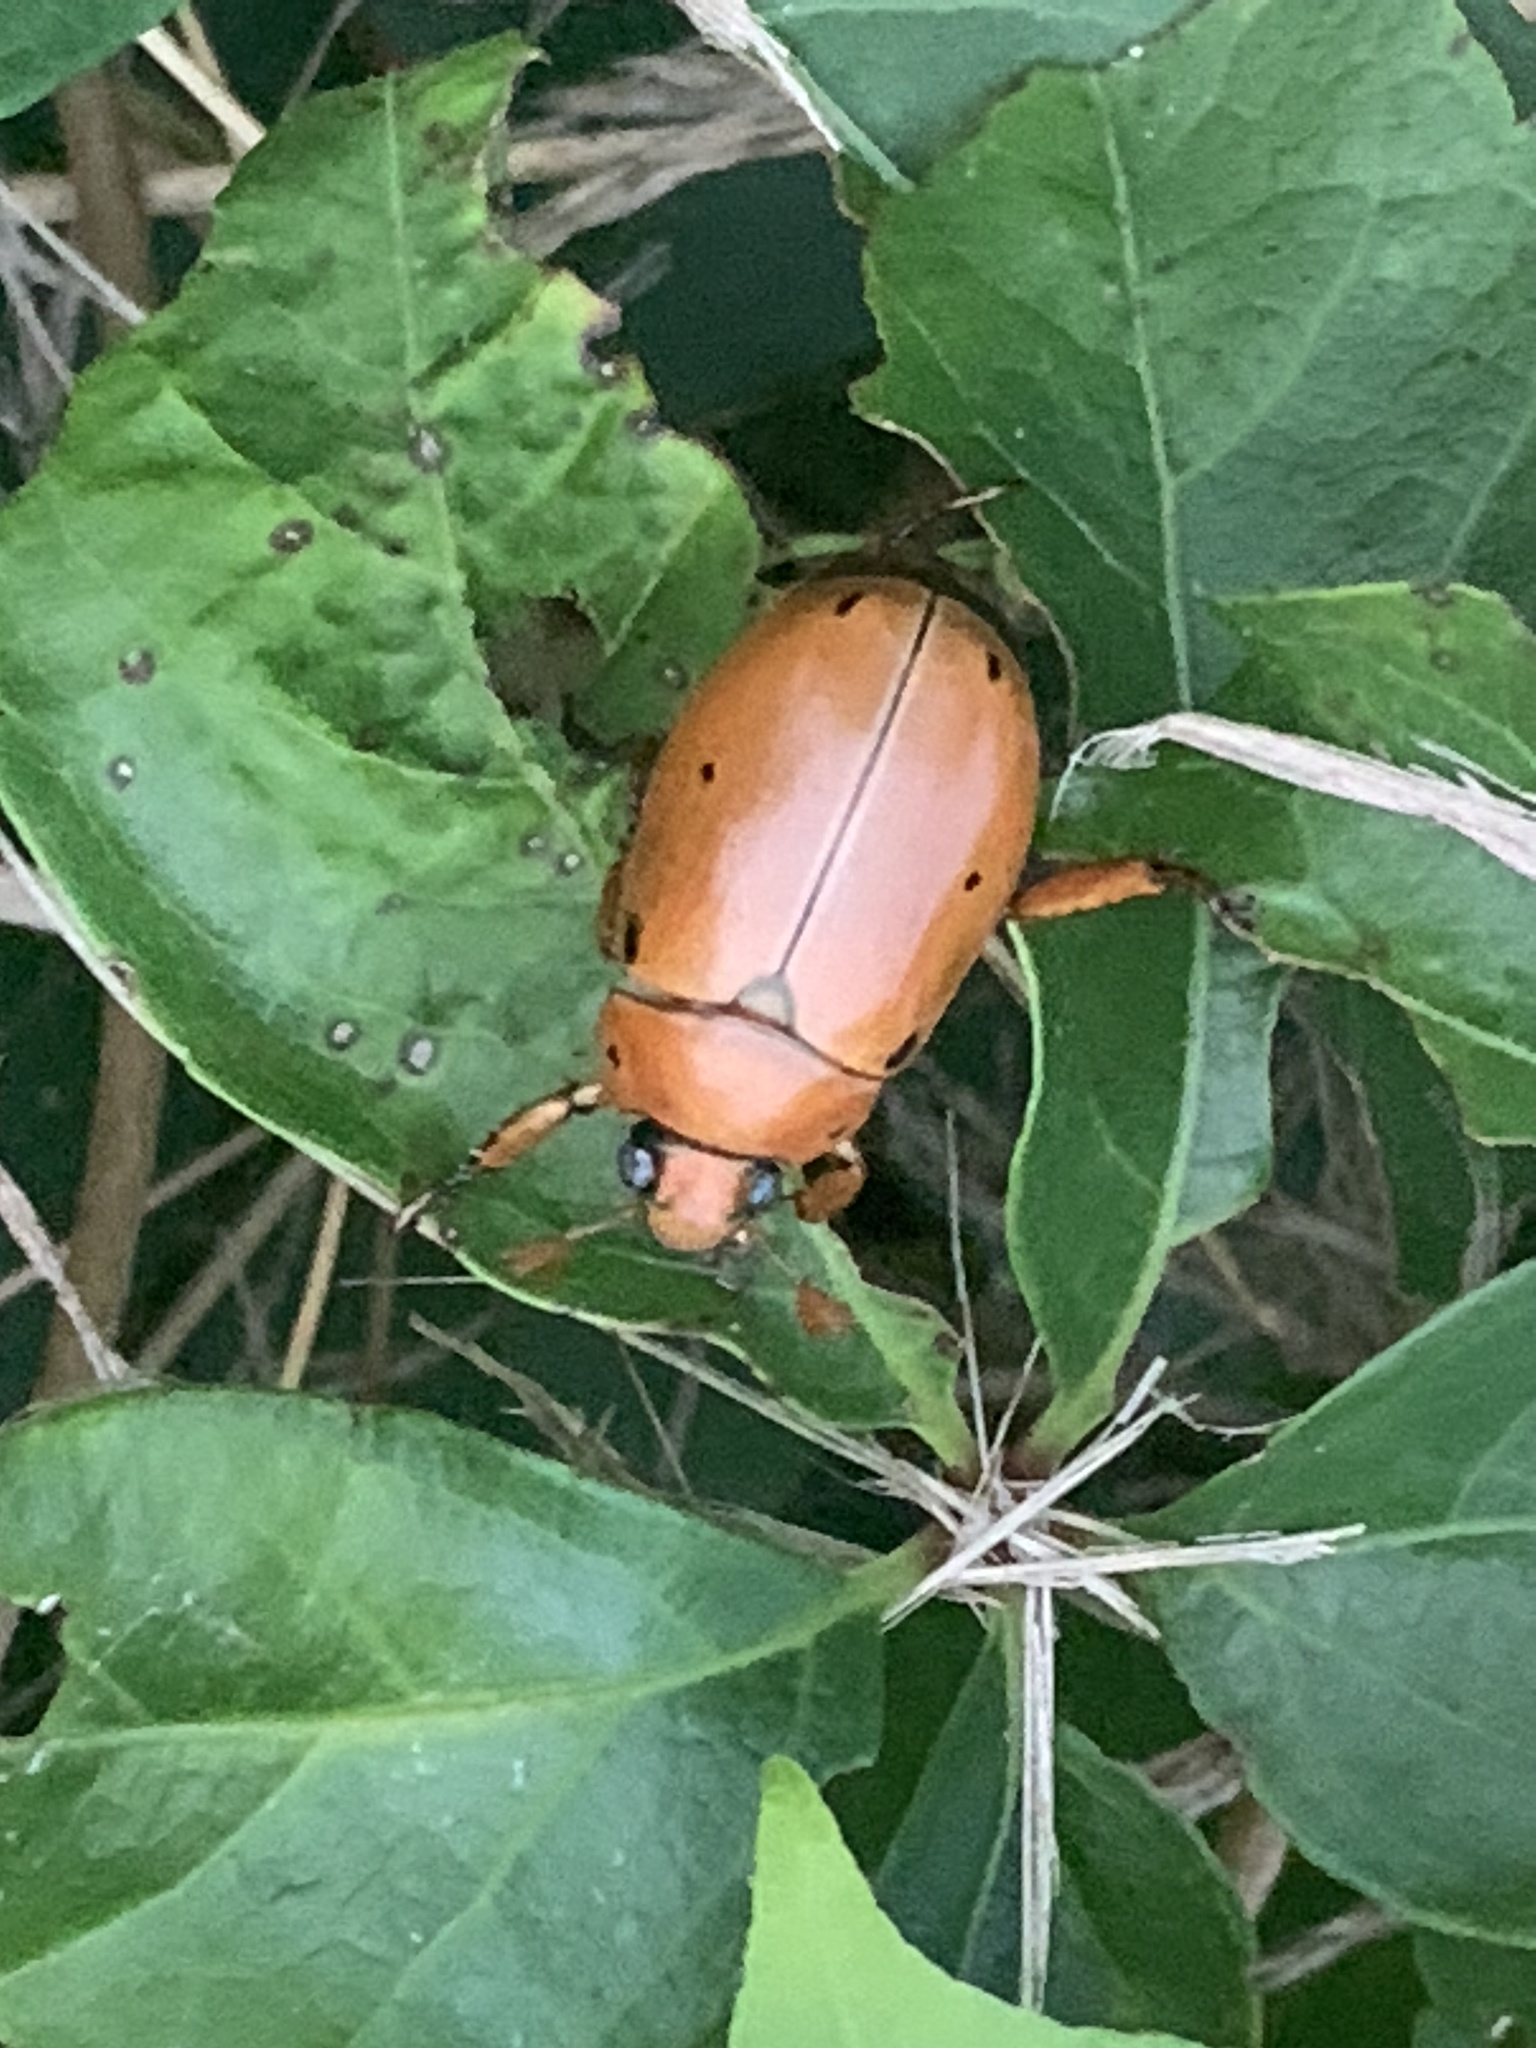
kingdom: Animalia
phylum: Arthropoda
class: Insecta
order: Coleoptera
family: Scarabaeidae
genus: Pelidnota
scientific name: Pelidnota punctata
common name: Grapevine beetle
